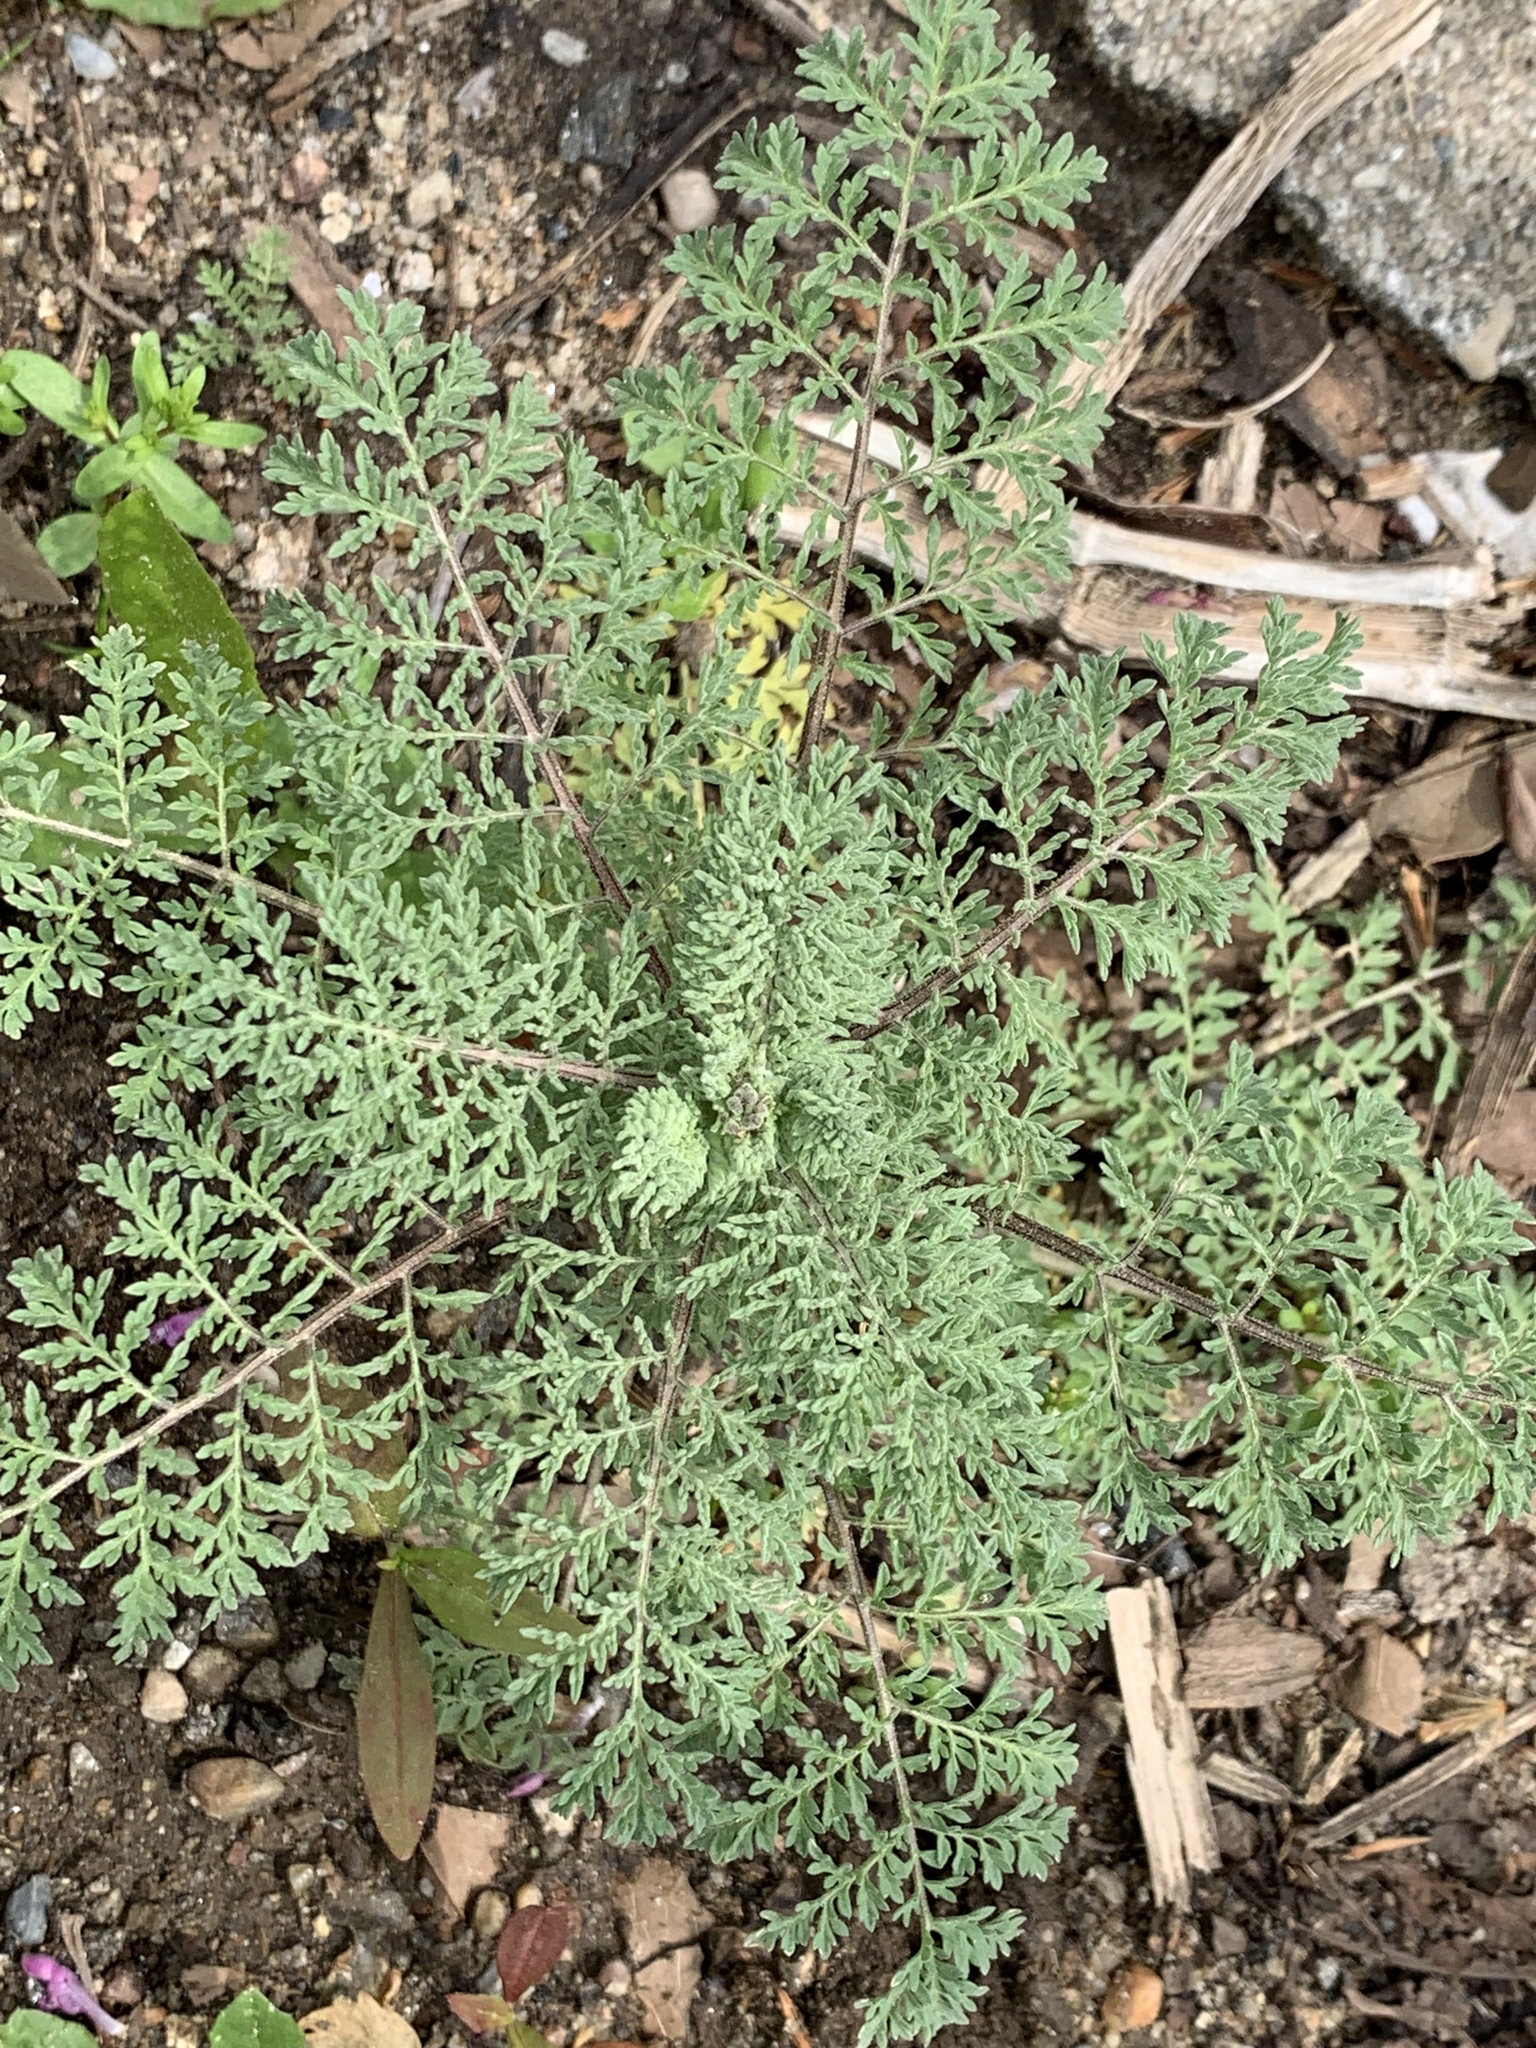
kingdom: Plantae
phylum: Tracheophyta
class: Magnoliopsida
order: Brassicales
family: Brassicaceae
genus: Descurainia
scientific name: Descurainia sophia
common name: Flixweed
